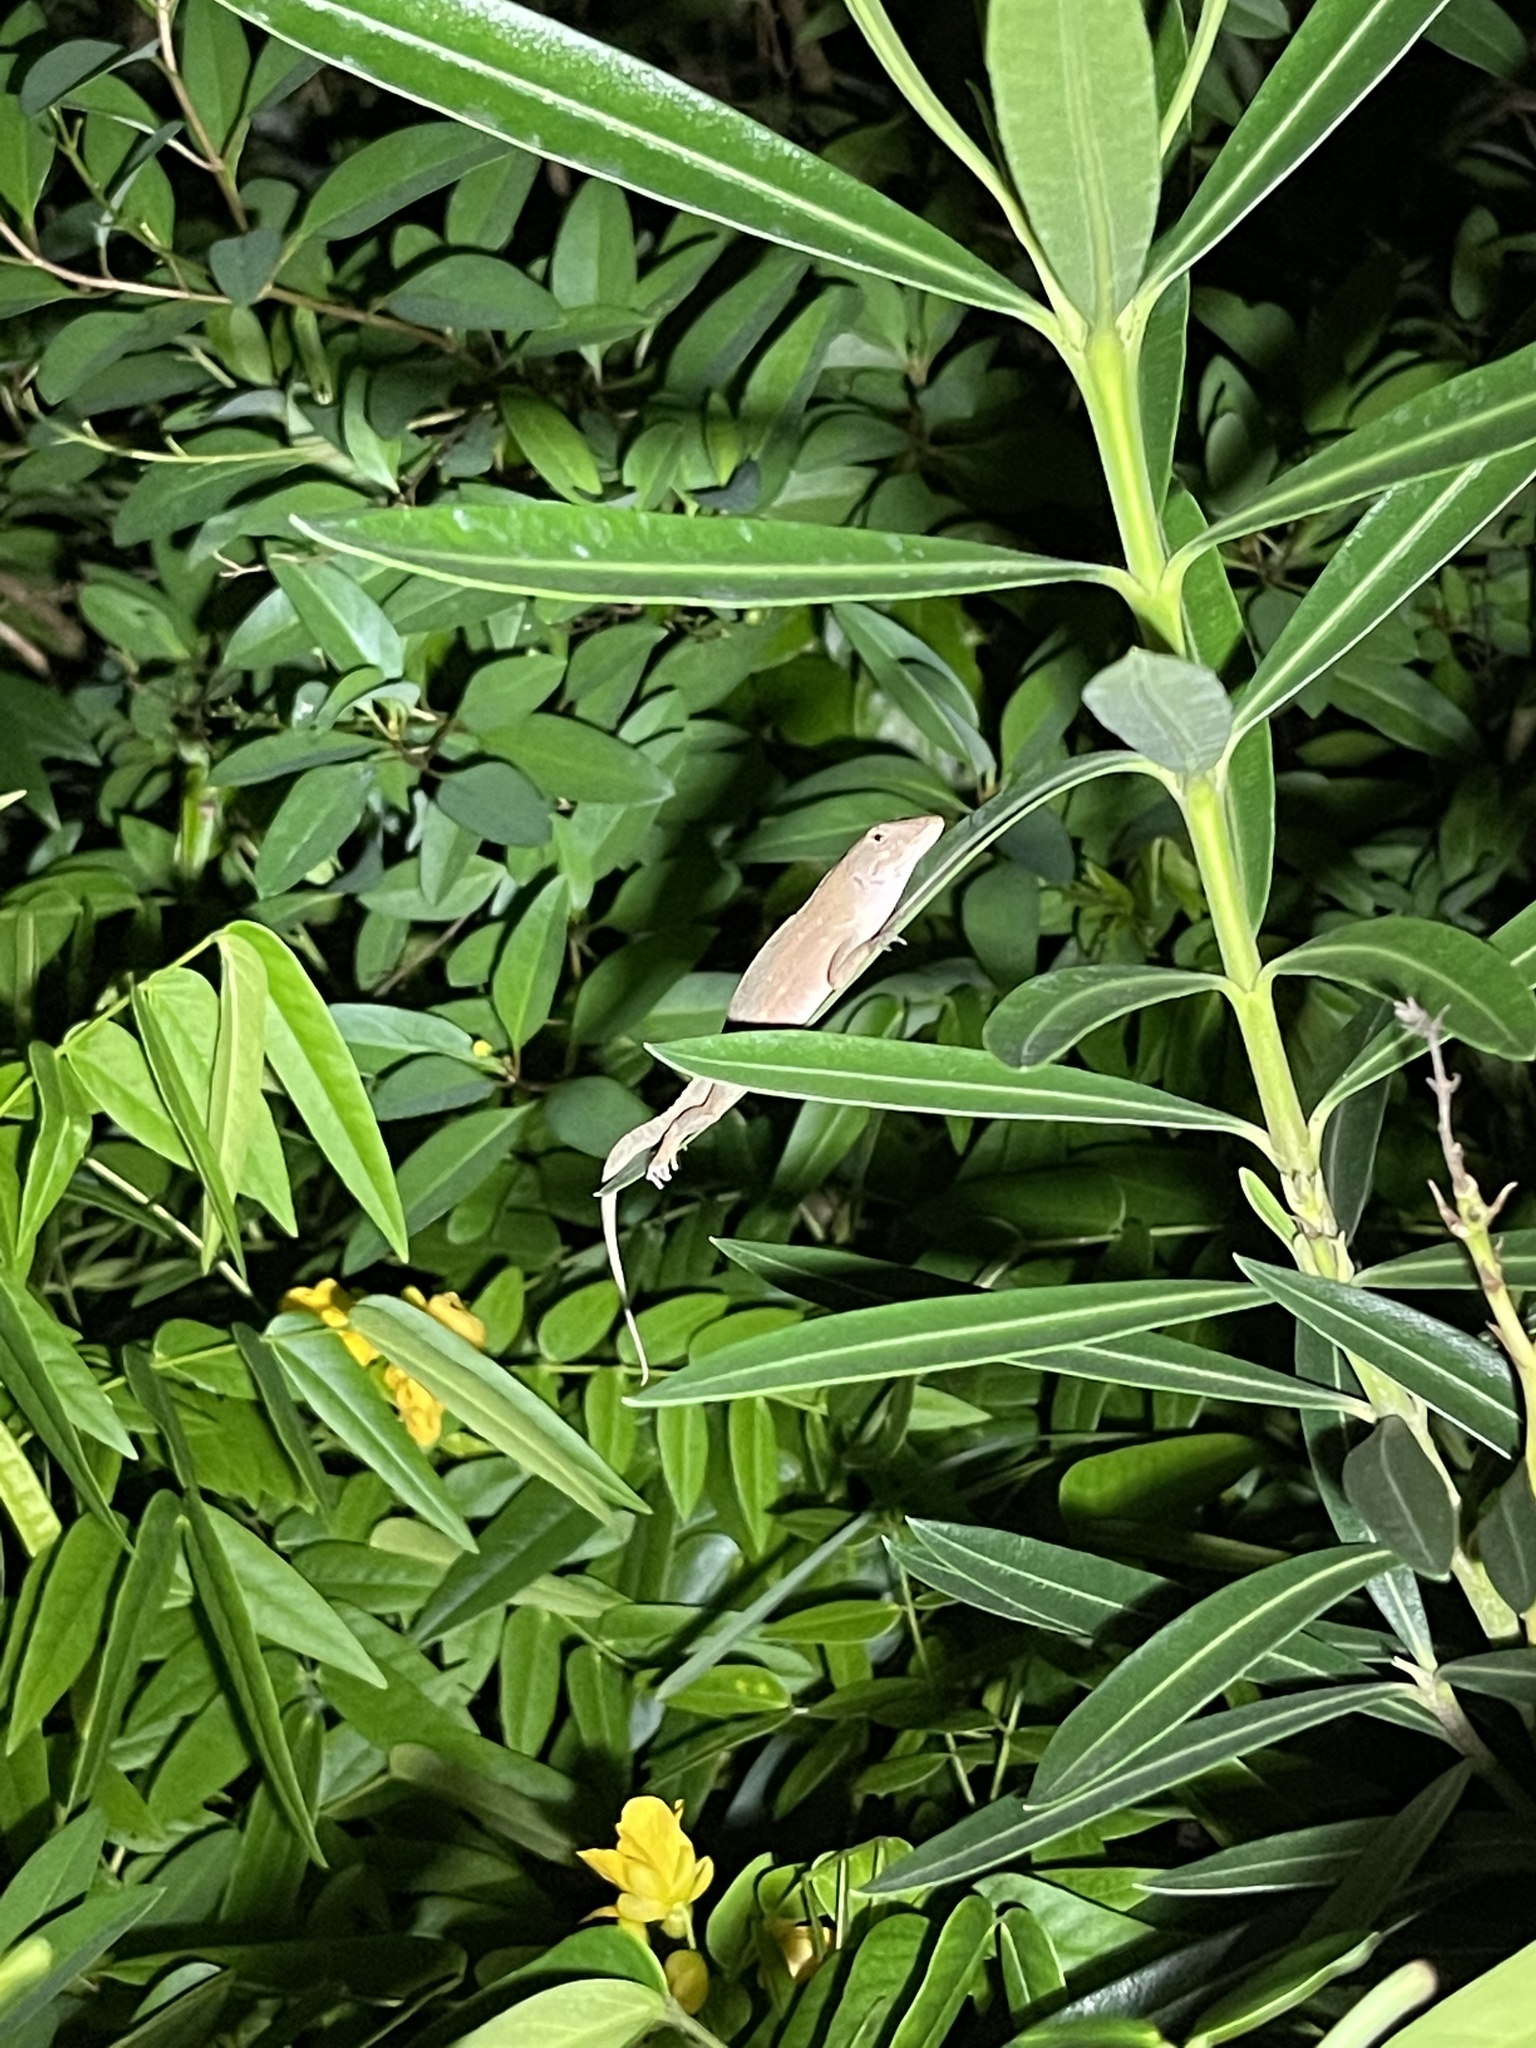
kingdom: Animalia
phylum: Chordata
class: Squamata
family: Dactyloidae
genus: Anolis
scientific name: Anolis sagrei
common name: Brown anole
